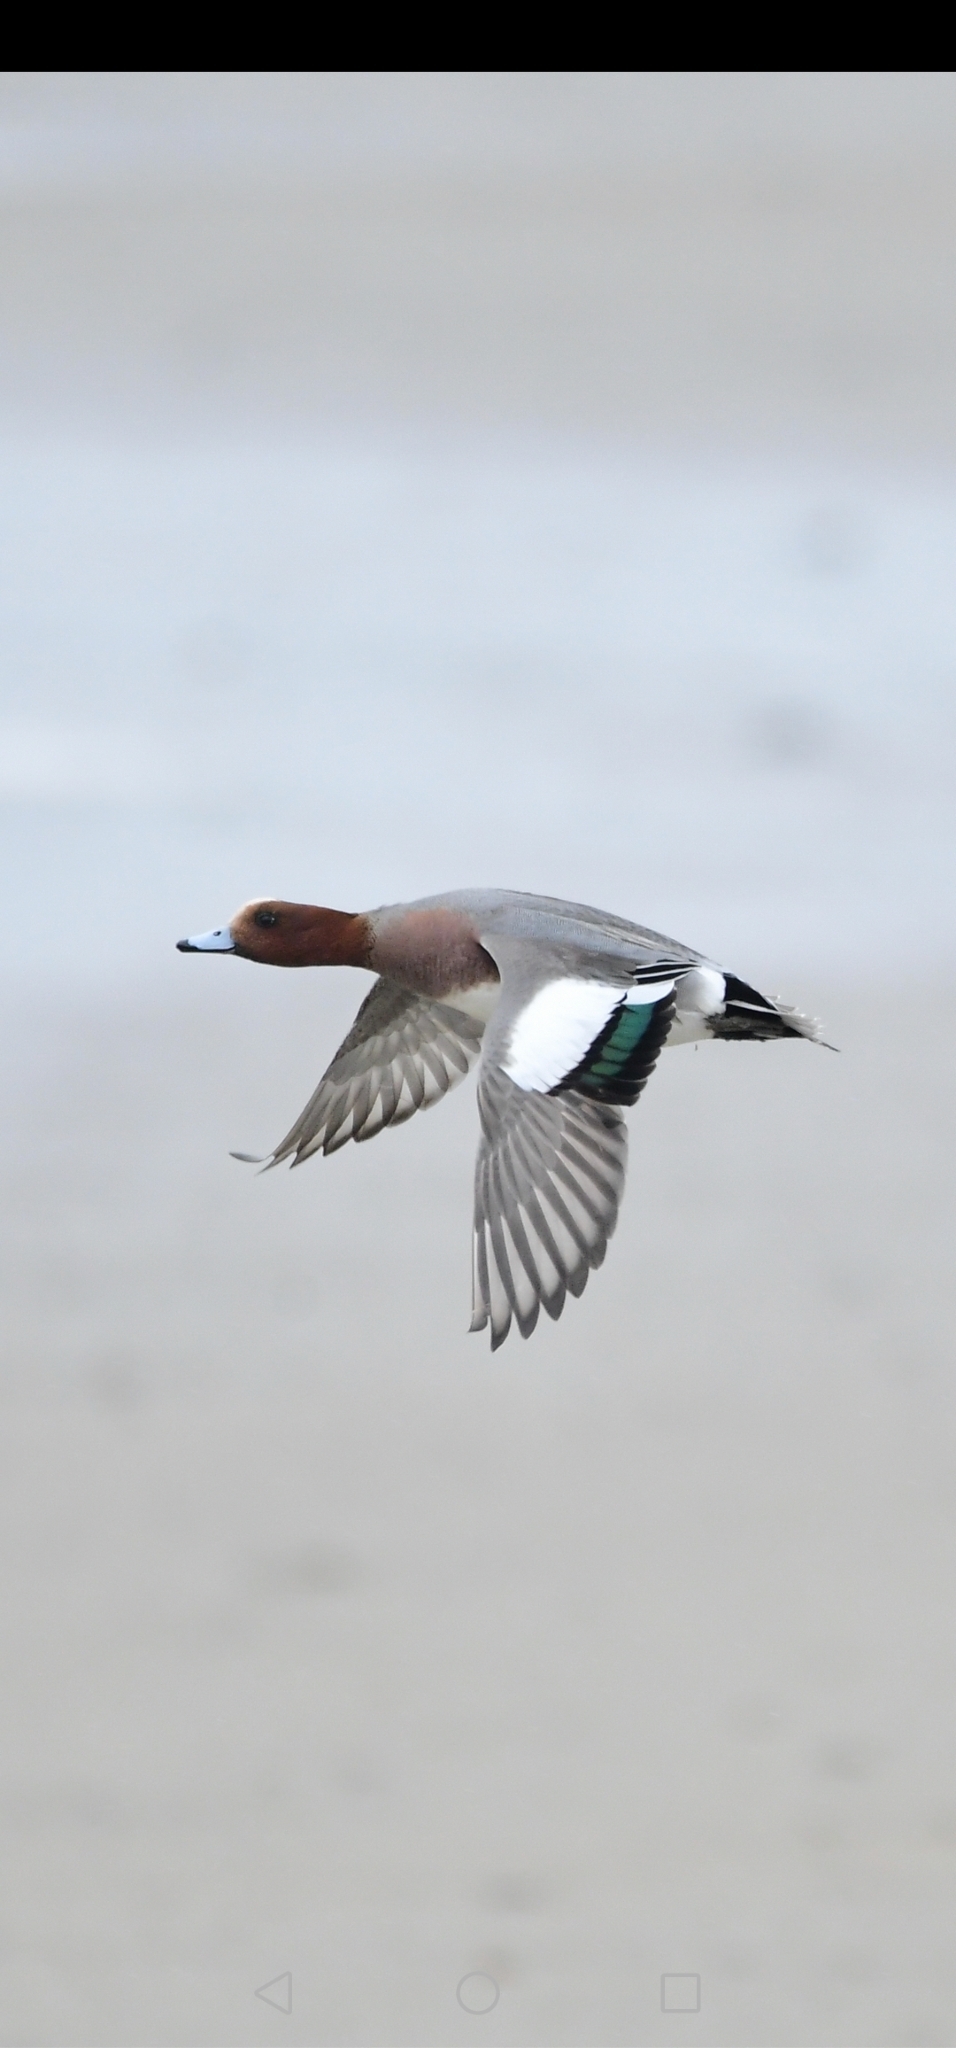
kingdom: Animalia
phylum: Chordata
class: Aves
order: Anseriformes
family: Anatidae
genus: Mareca
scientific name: Mareca penelope
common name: Eurasian wigeon
